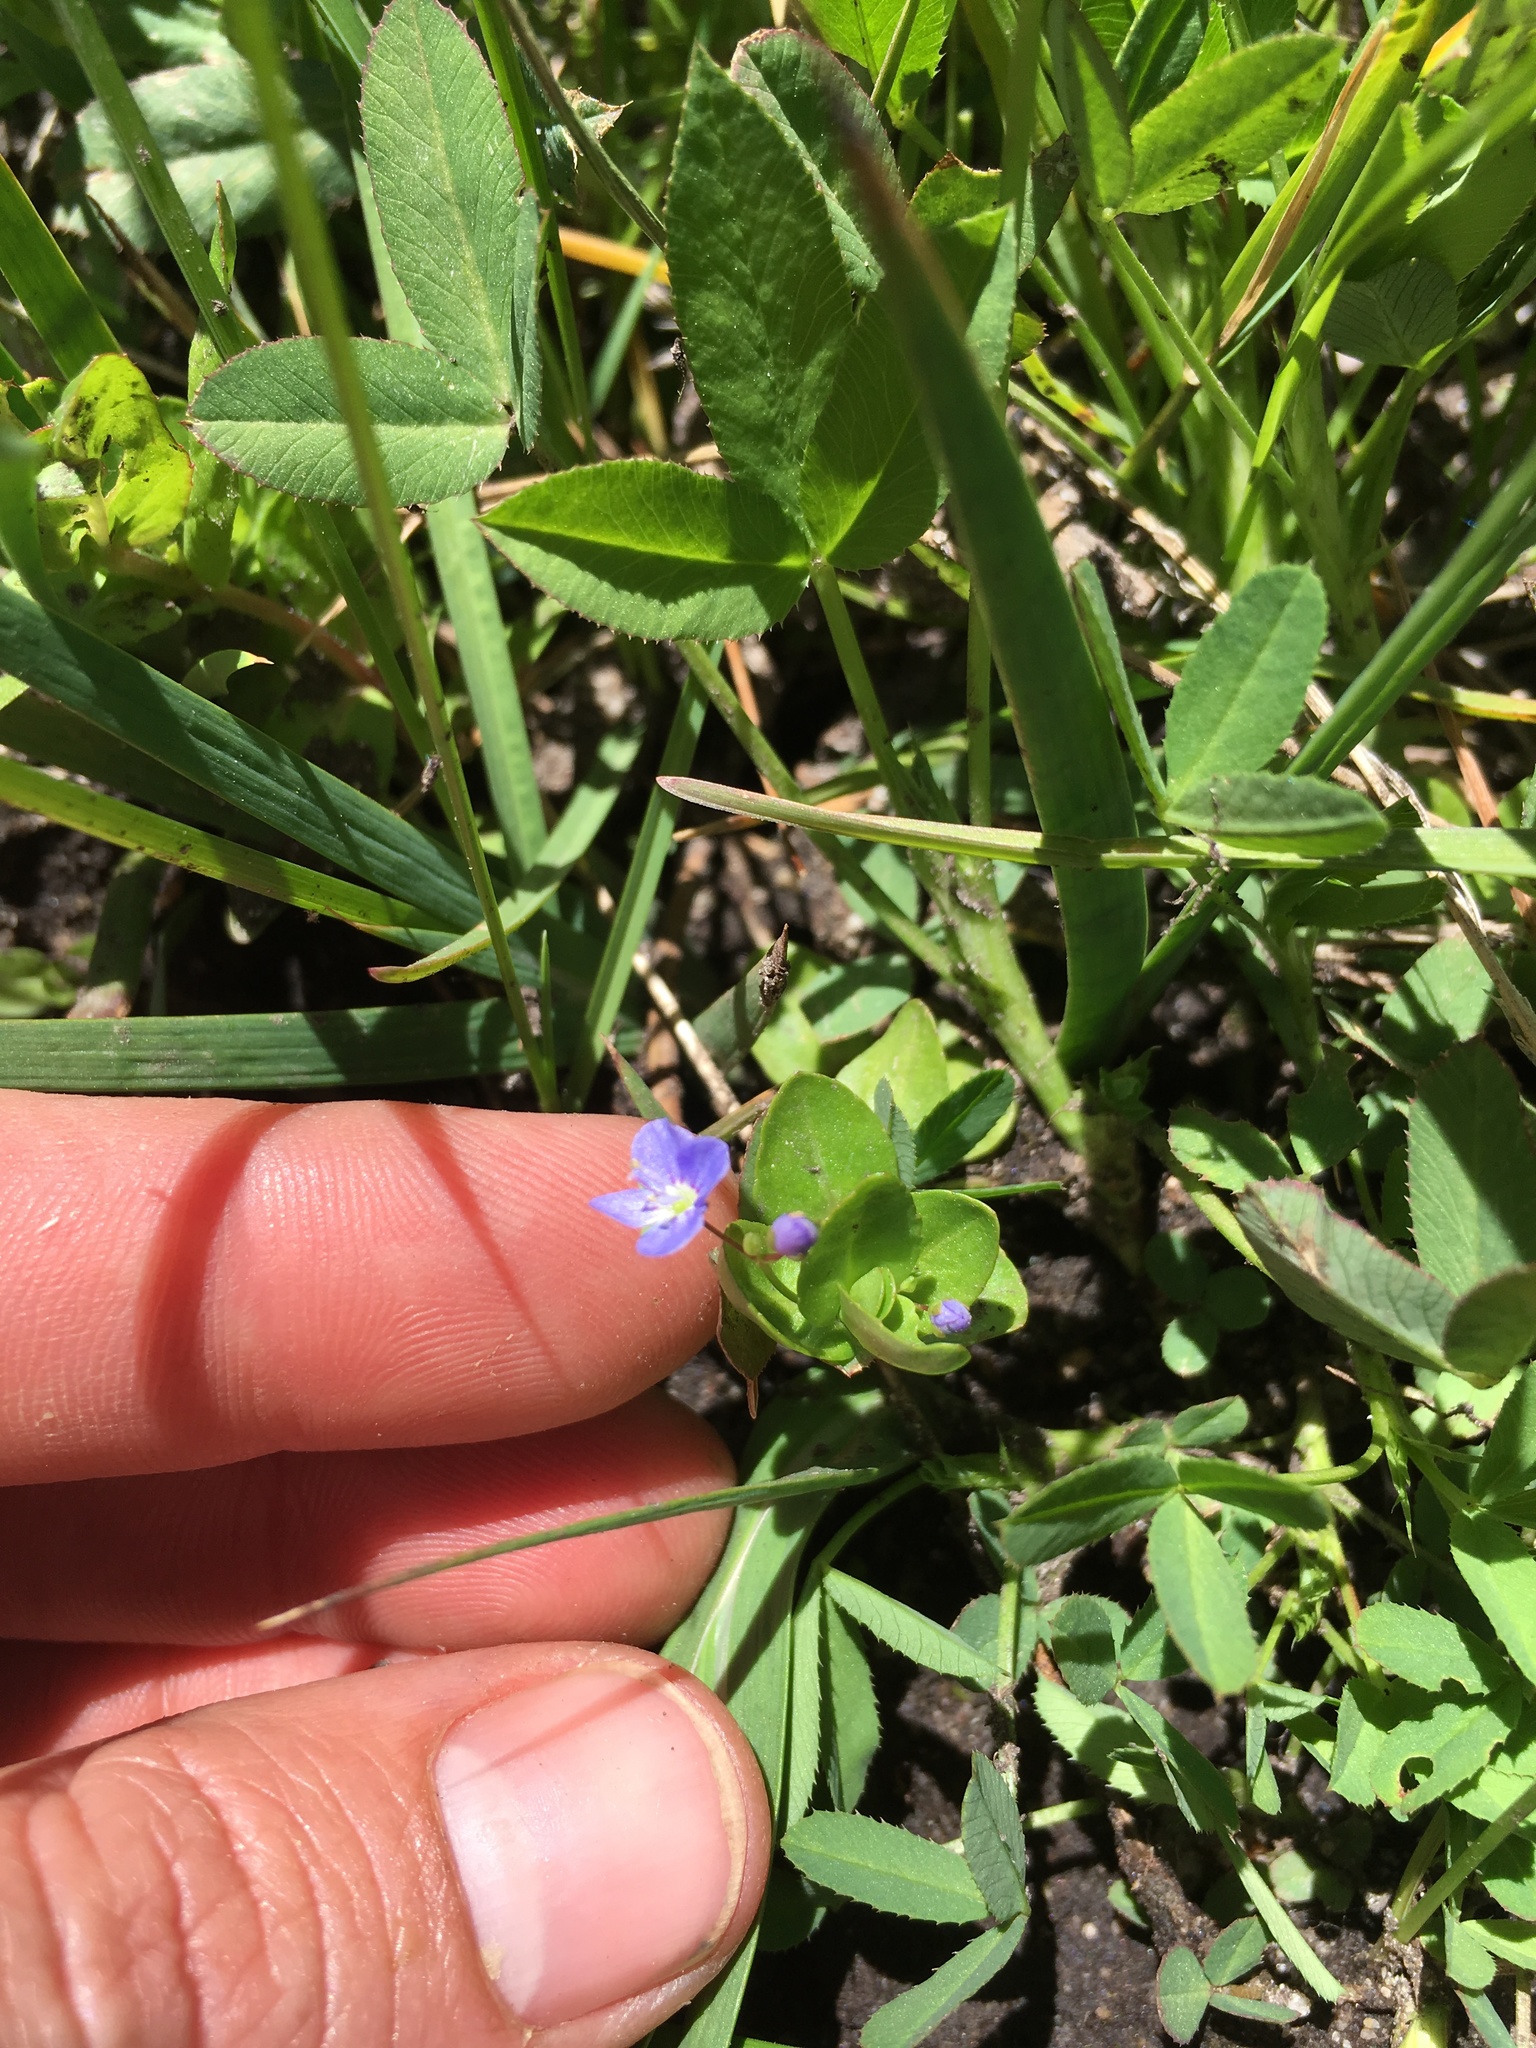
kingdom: Plantae
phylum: Tracheophyta
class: Magnoliopsida
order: Lamiales
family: Plantaginaceae
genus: Veronica
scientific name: Veronica americana
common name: American brooklime
